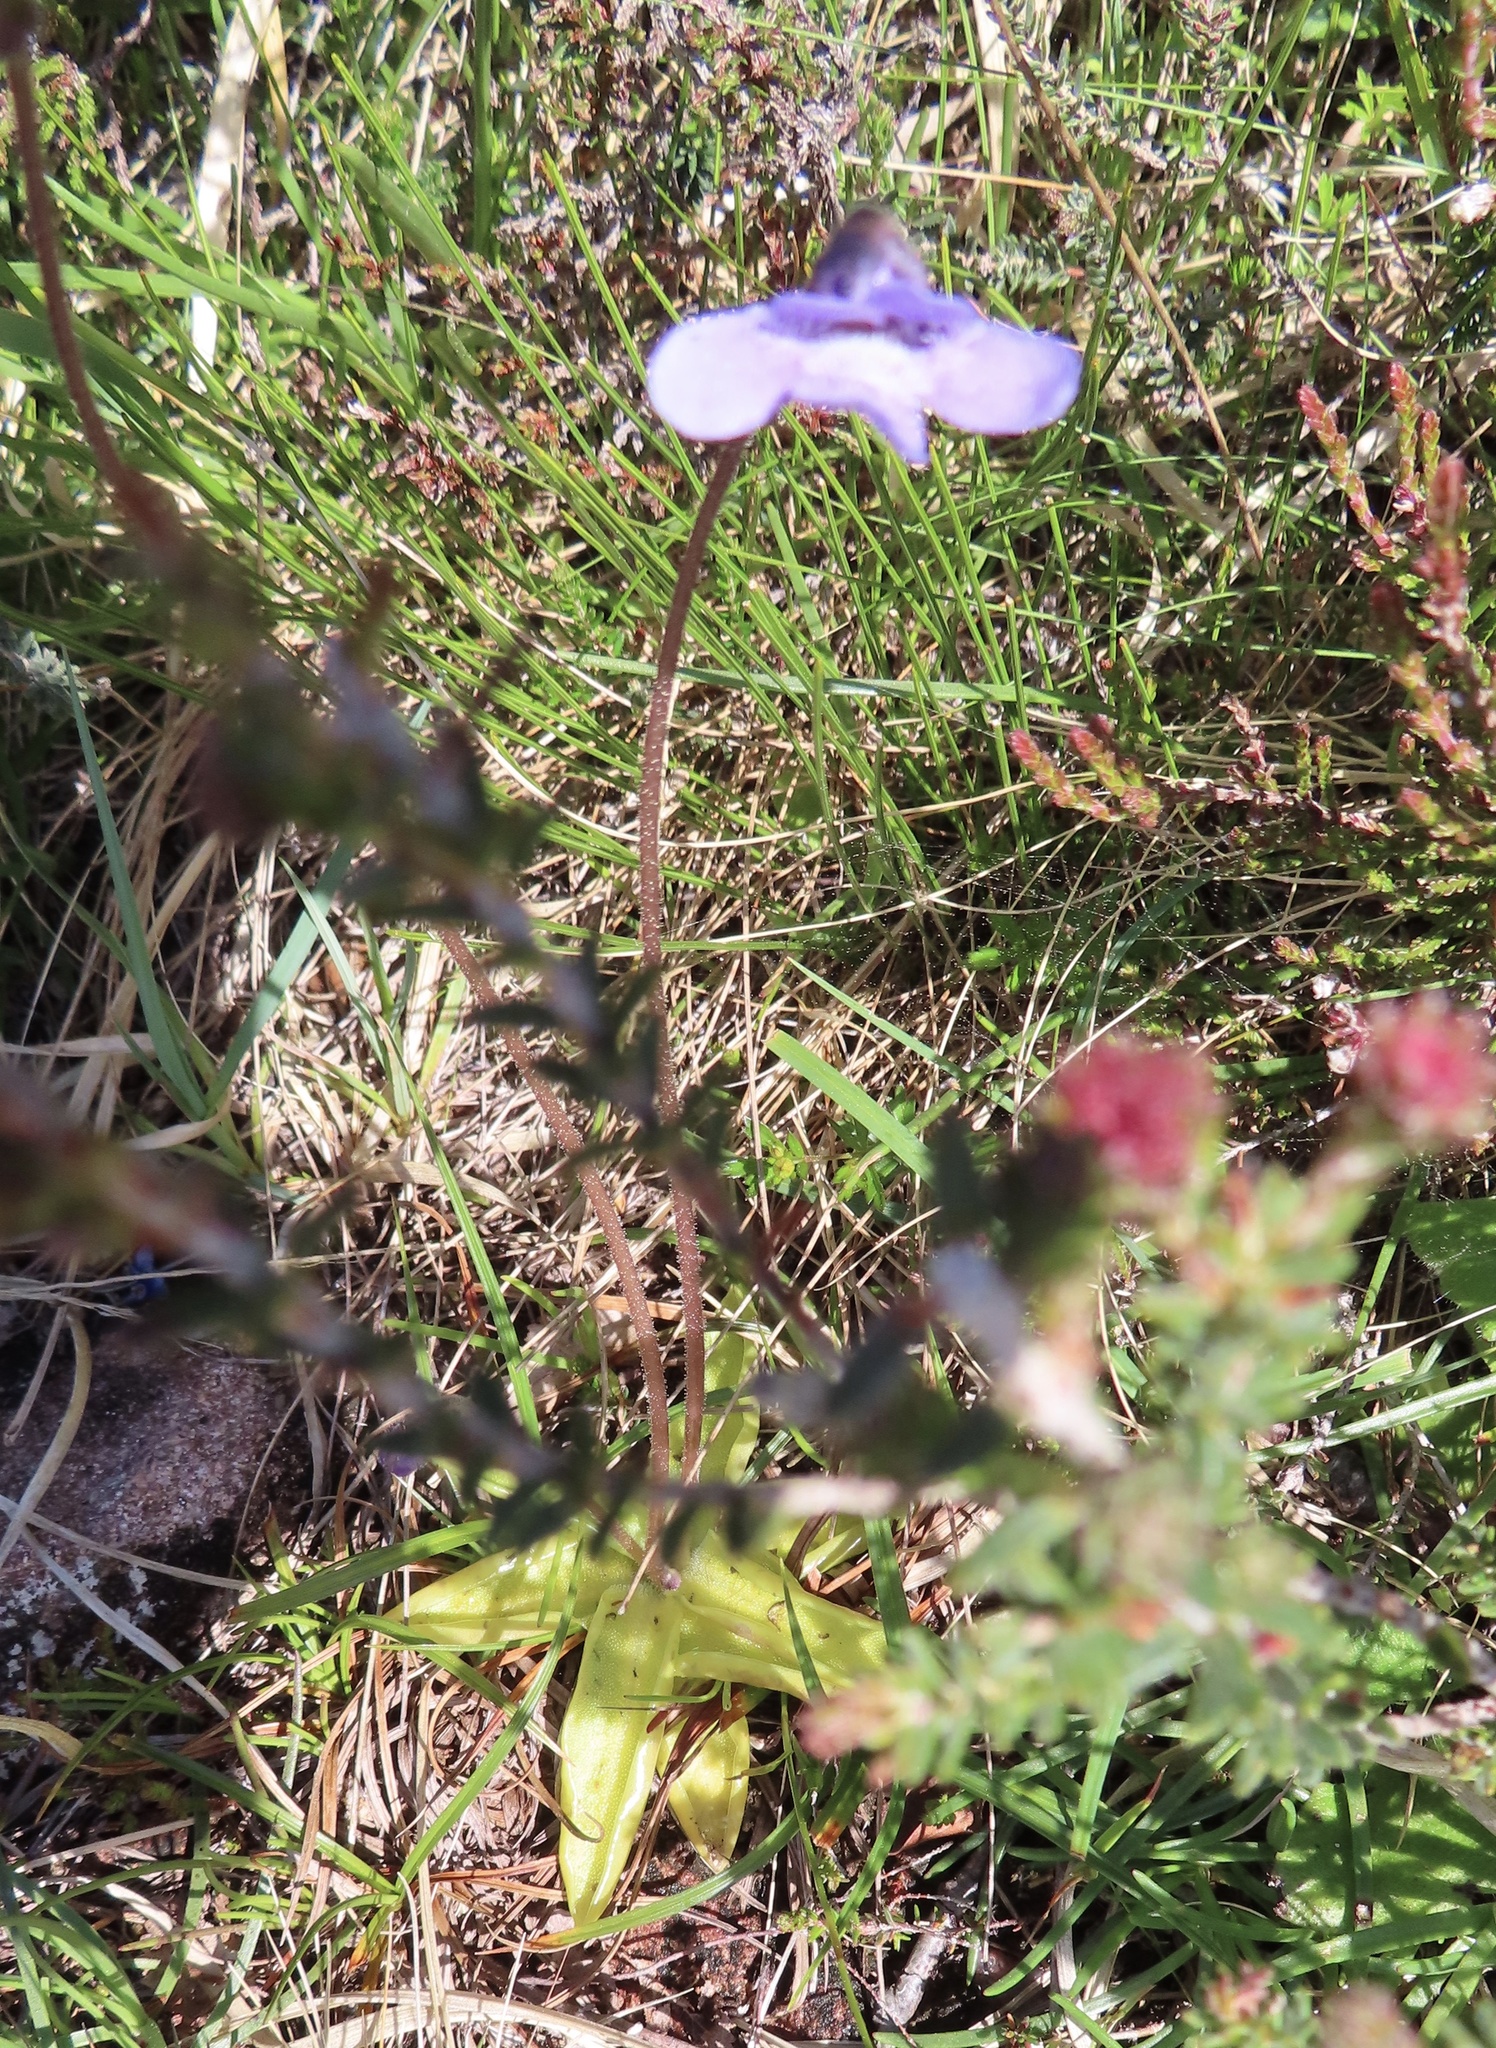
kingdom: Plantae
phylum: Tracheophyta
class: Magnoliopsida
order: Lamiales
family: Lentibulariaceae
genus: Pinguicula
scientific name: Pinguicula vulgaris
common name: Common butterwort
